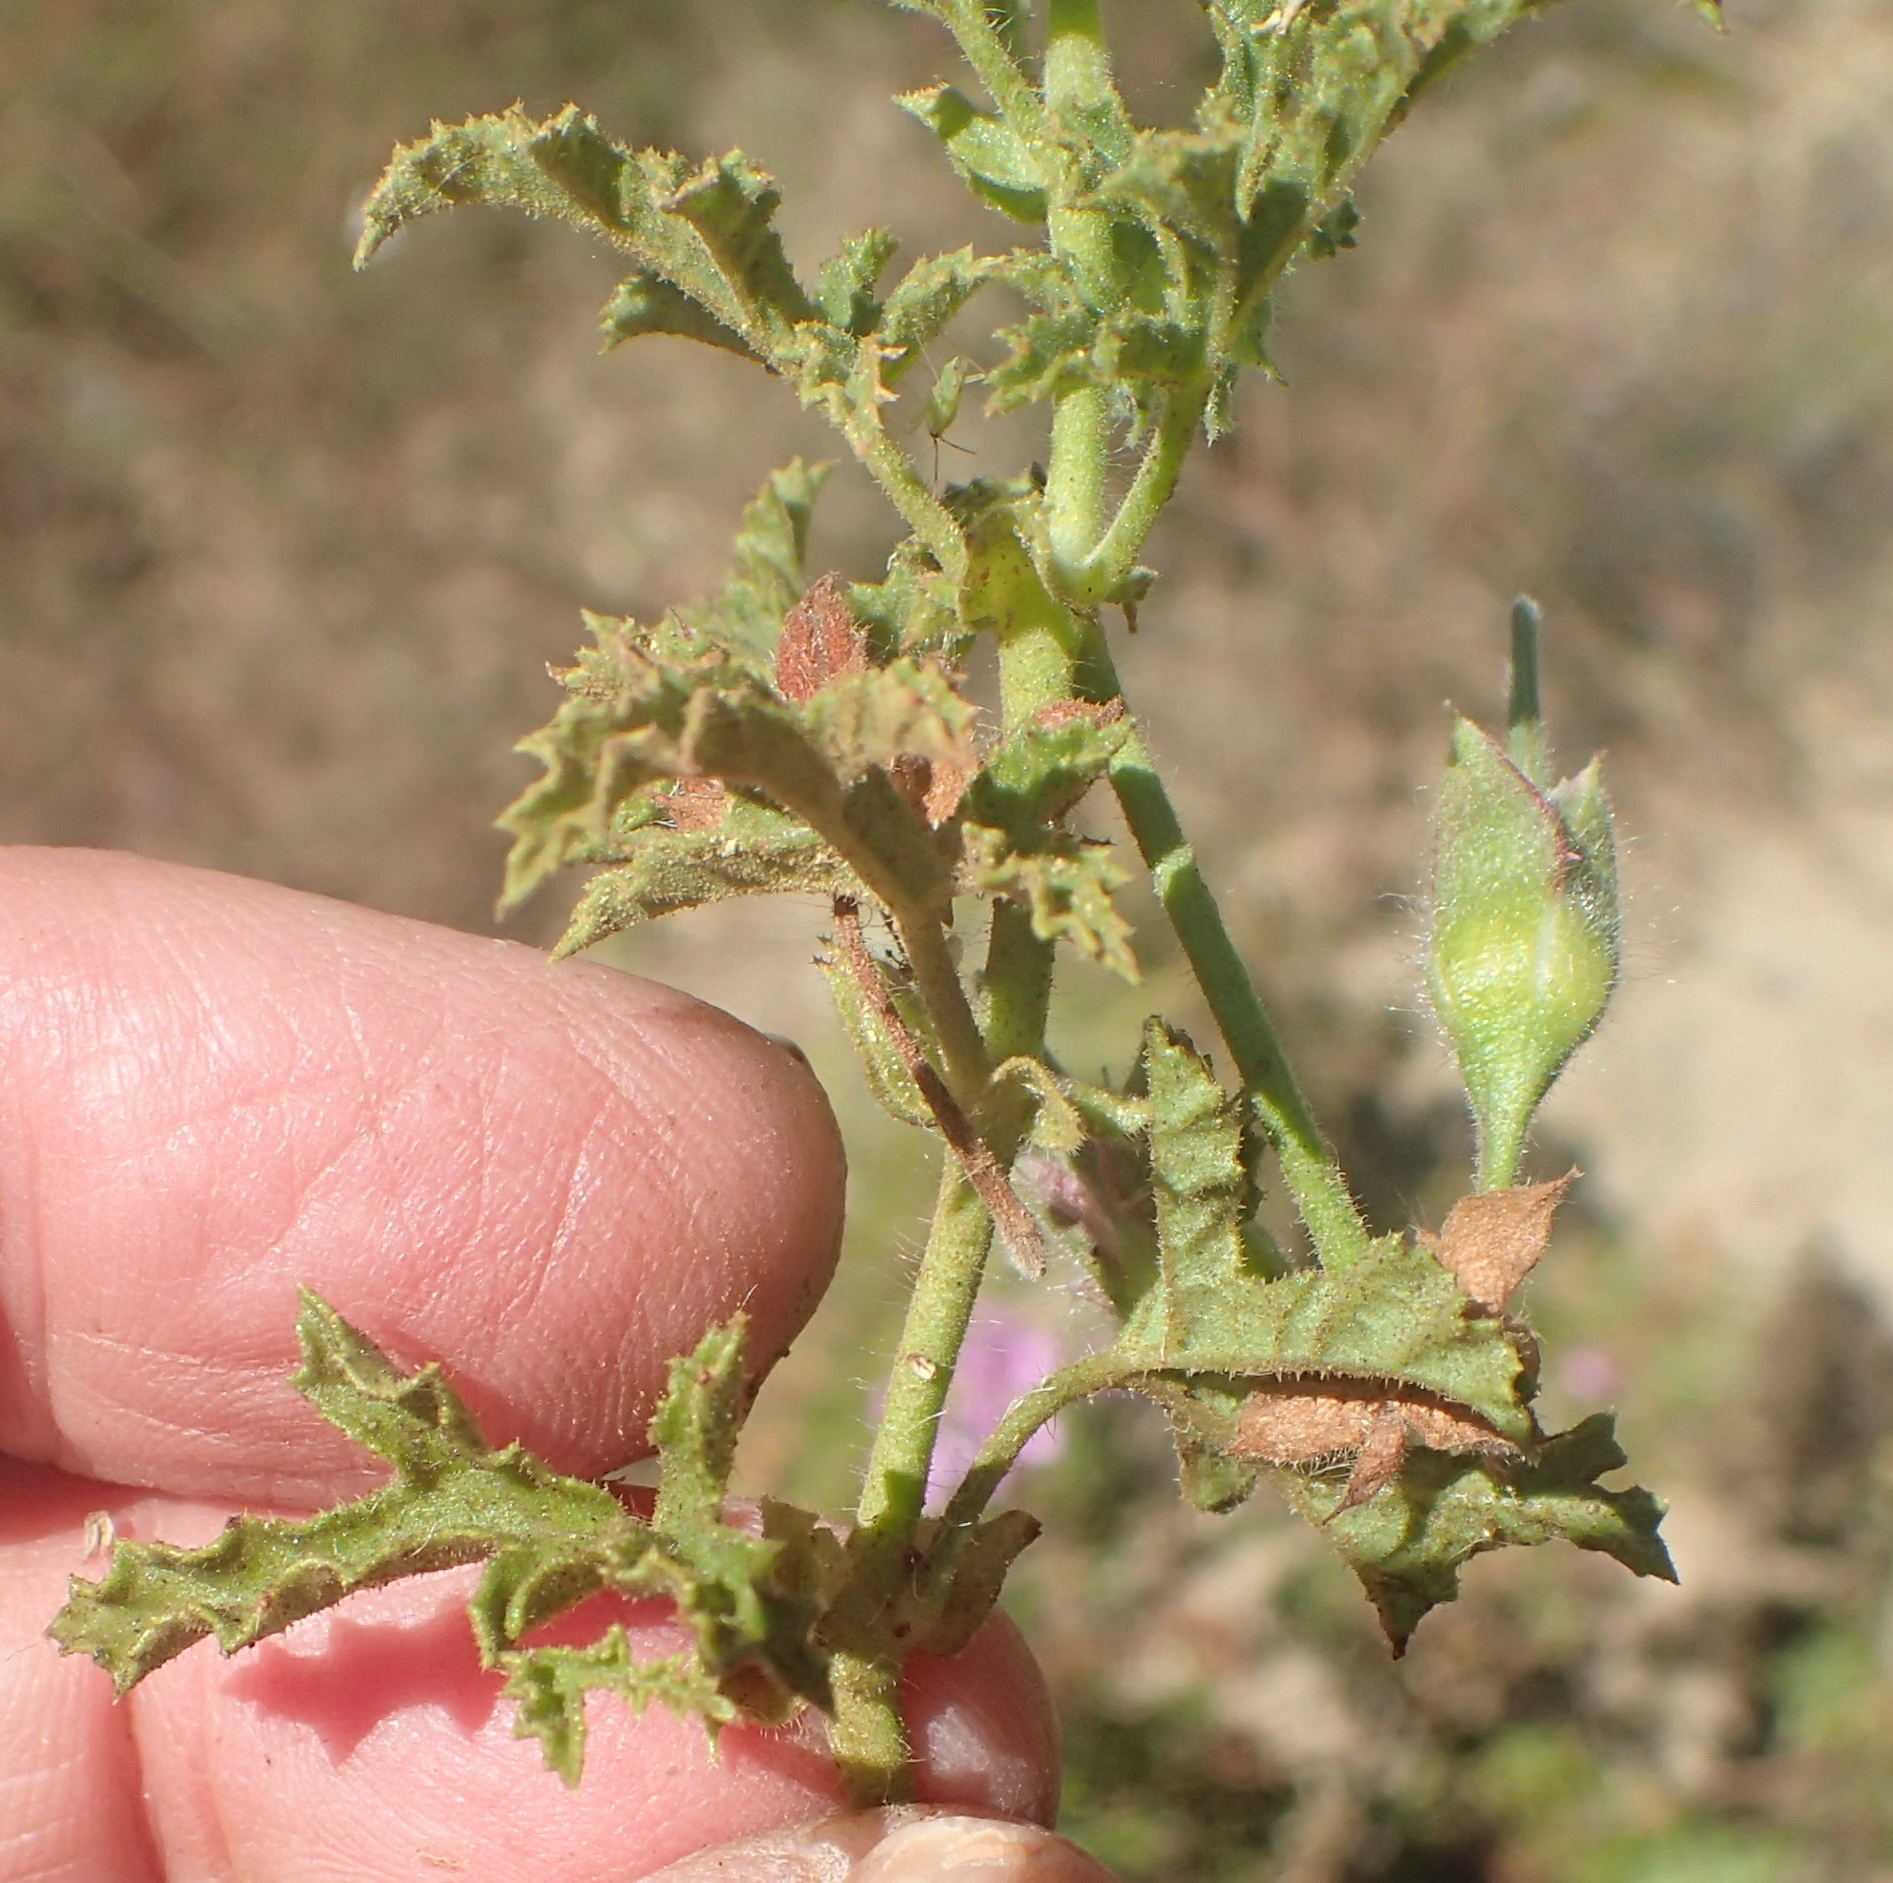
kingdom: Plantae
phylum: Tracheophyta
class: Magnoliopsida
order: Geraniales
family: Geraniaceae
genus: Pelargonium
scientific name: Pelargonium glutinosum
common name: Pheasant-foot geranium
